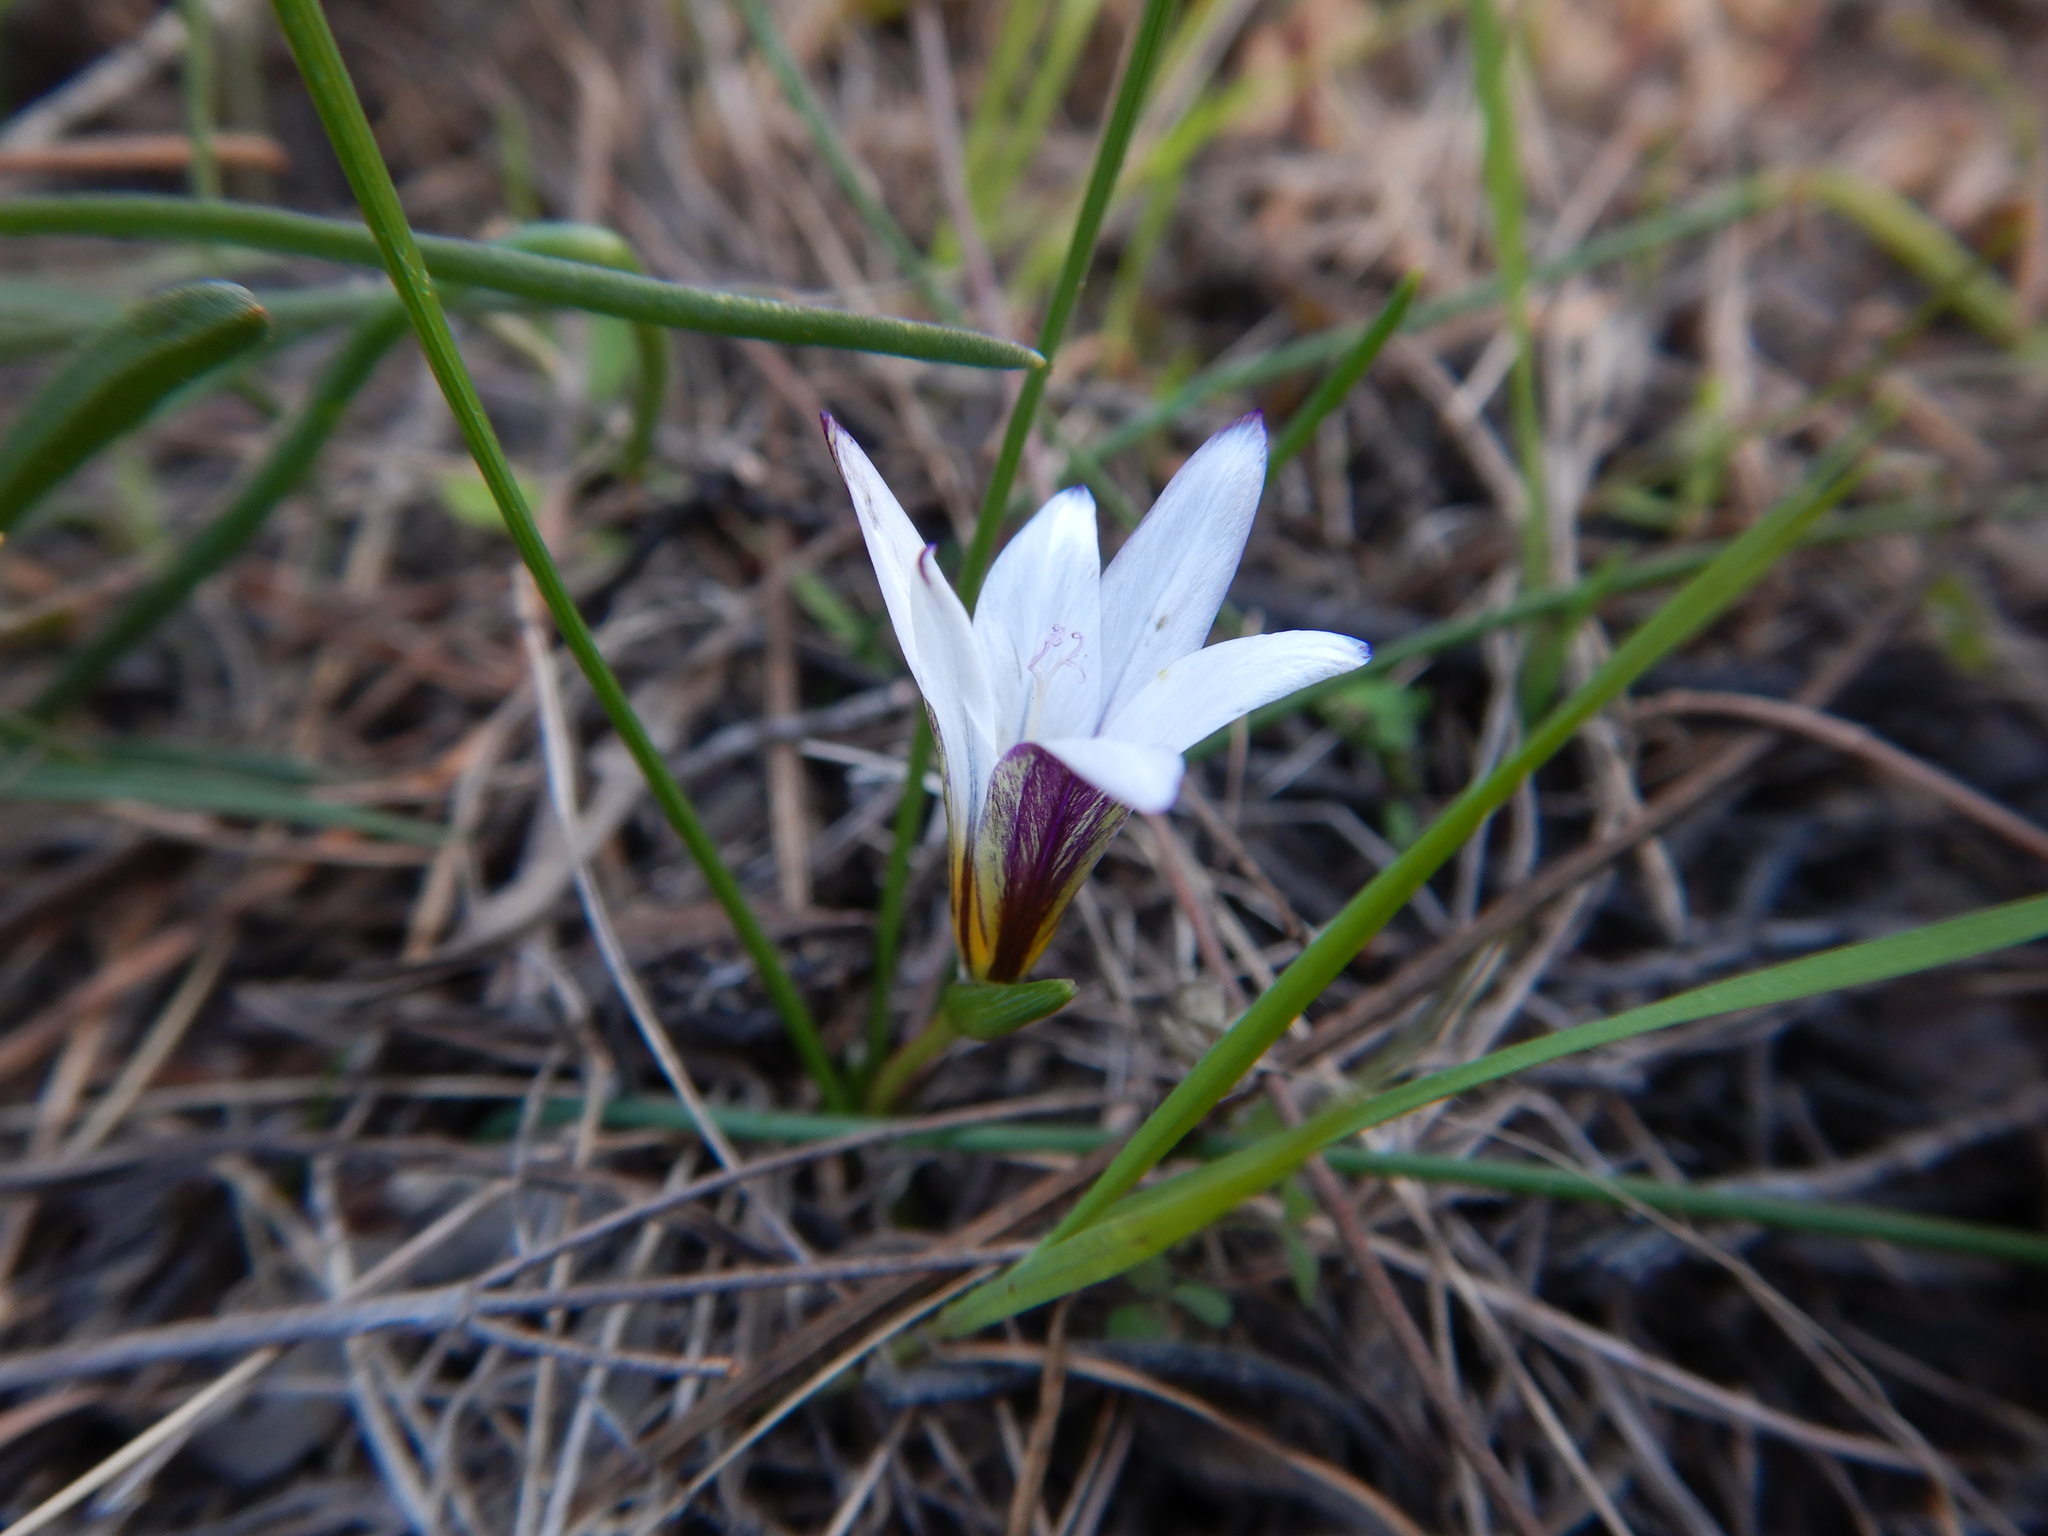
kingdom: Plantae
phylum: Tracheophyta
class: Liliopsida
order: Asparagales
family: Iridaceae
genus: Romulea
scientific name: Romulea bulbocodium
